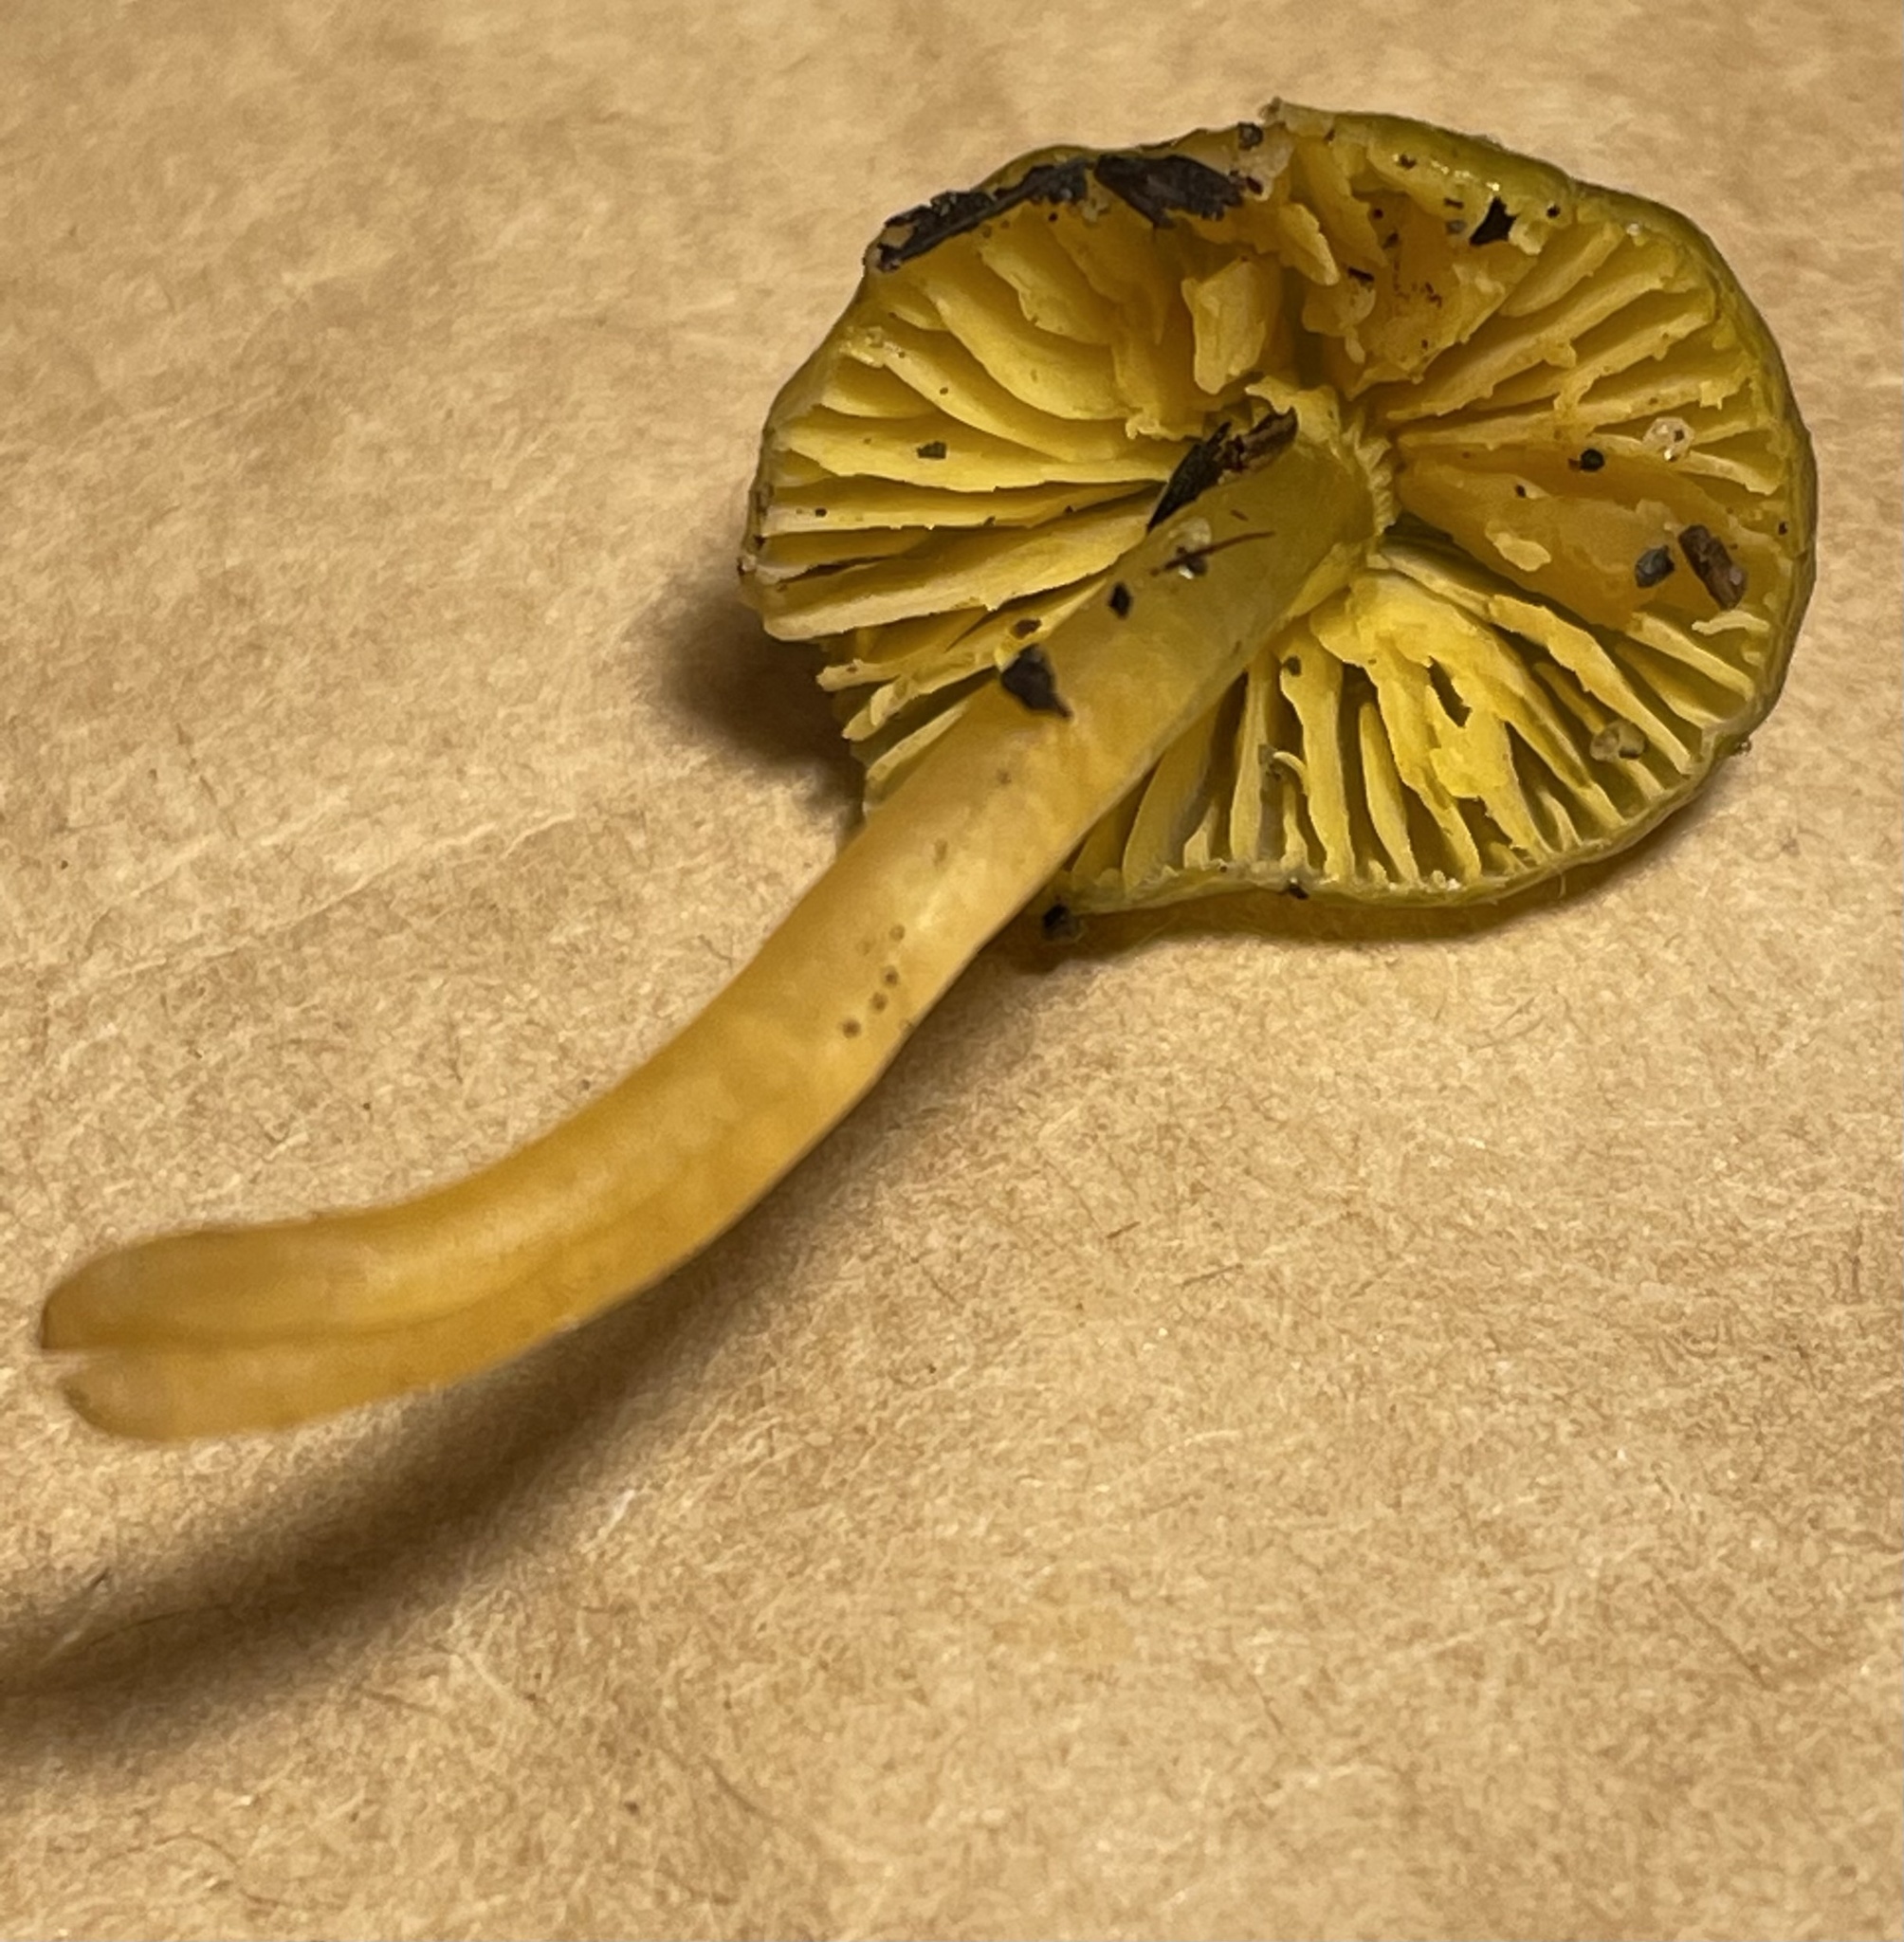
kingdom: Fungi
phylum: Basidiomycota
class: Agaricomycetes
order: Agaricales
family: Hygrophoraceae
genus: Gliophorus
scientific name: Gliophorus psittacinus
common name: Parrot wax-cap
